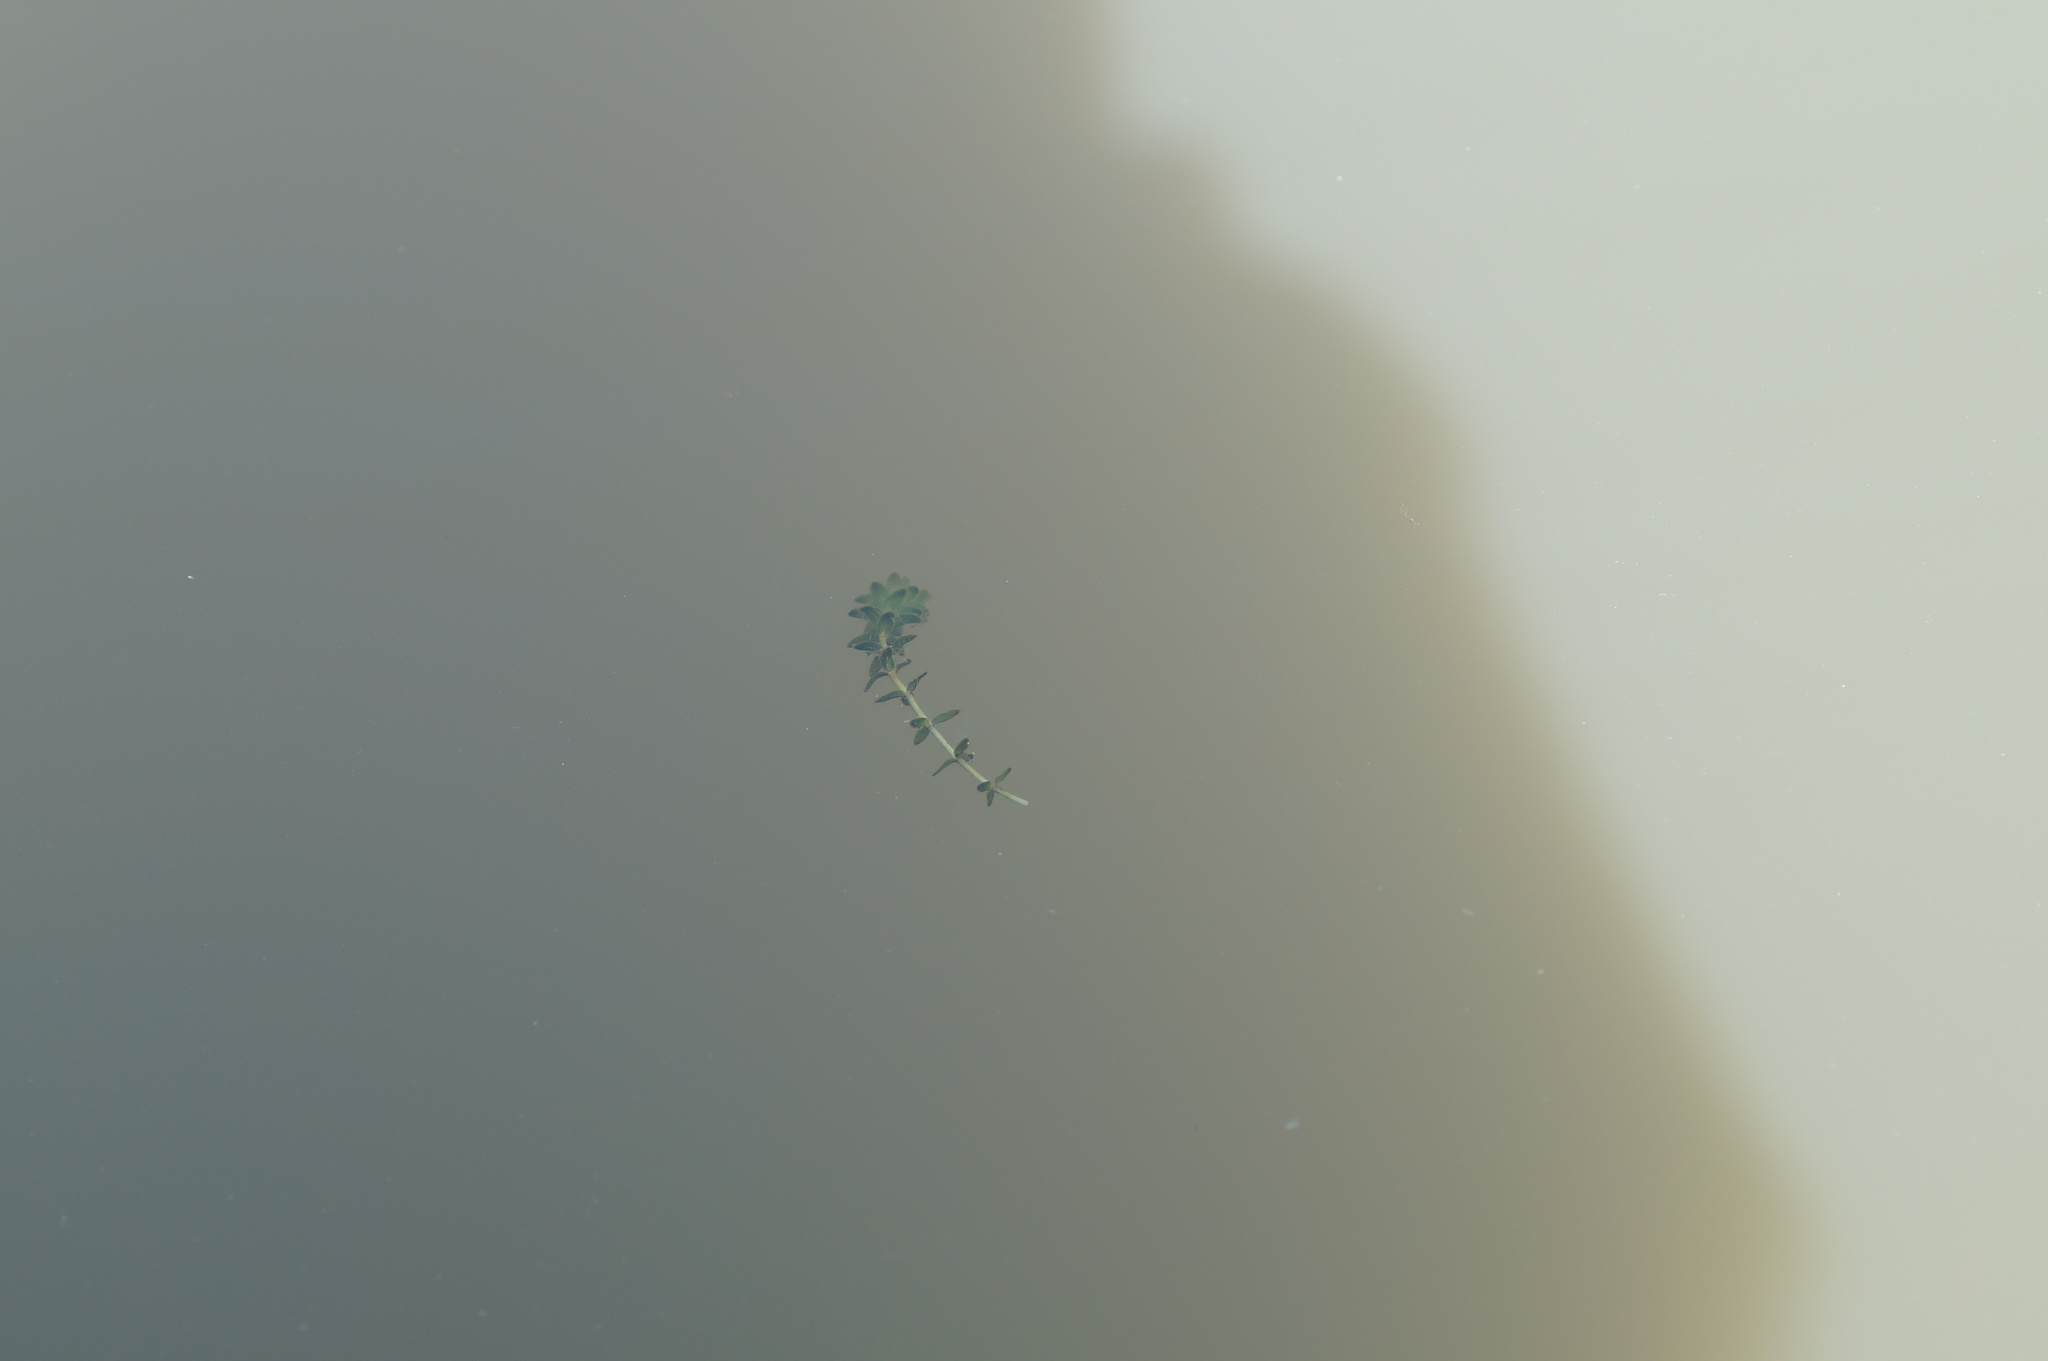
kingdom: Plantae
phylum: Tracheophyta
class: Liliopsida
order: Alismatales
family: Hydrocharitaceae
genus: Elodea
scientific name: Elodea canadensis
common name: Canadian waterweed
